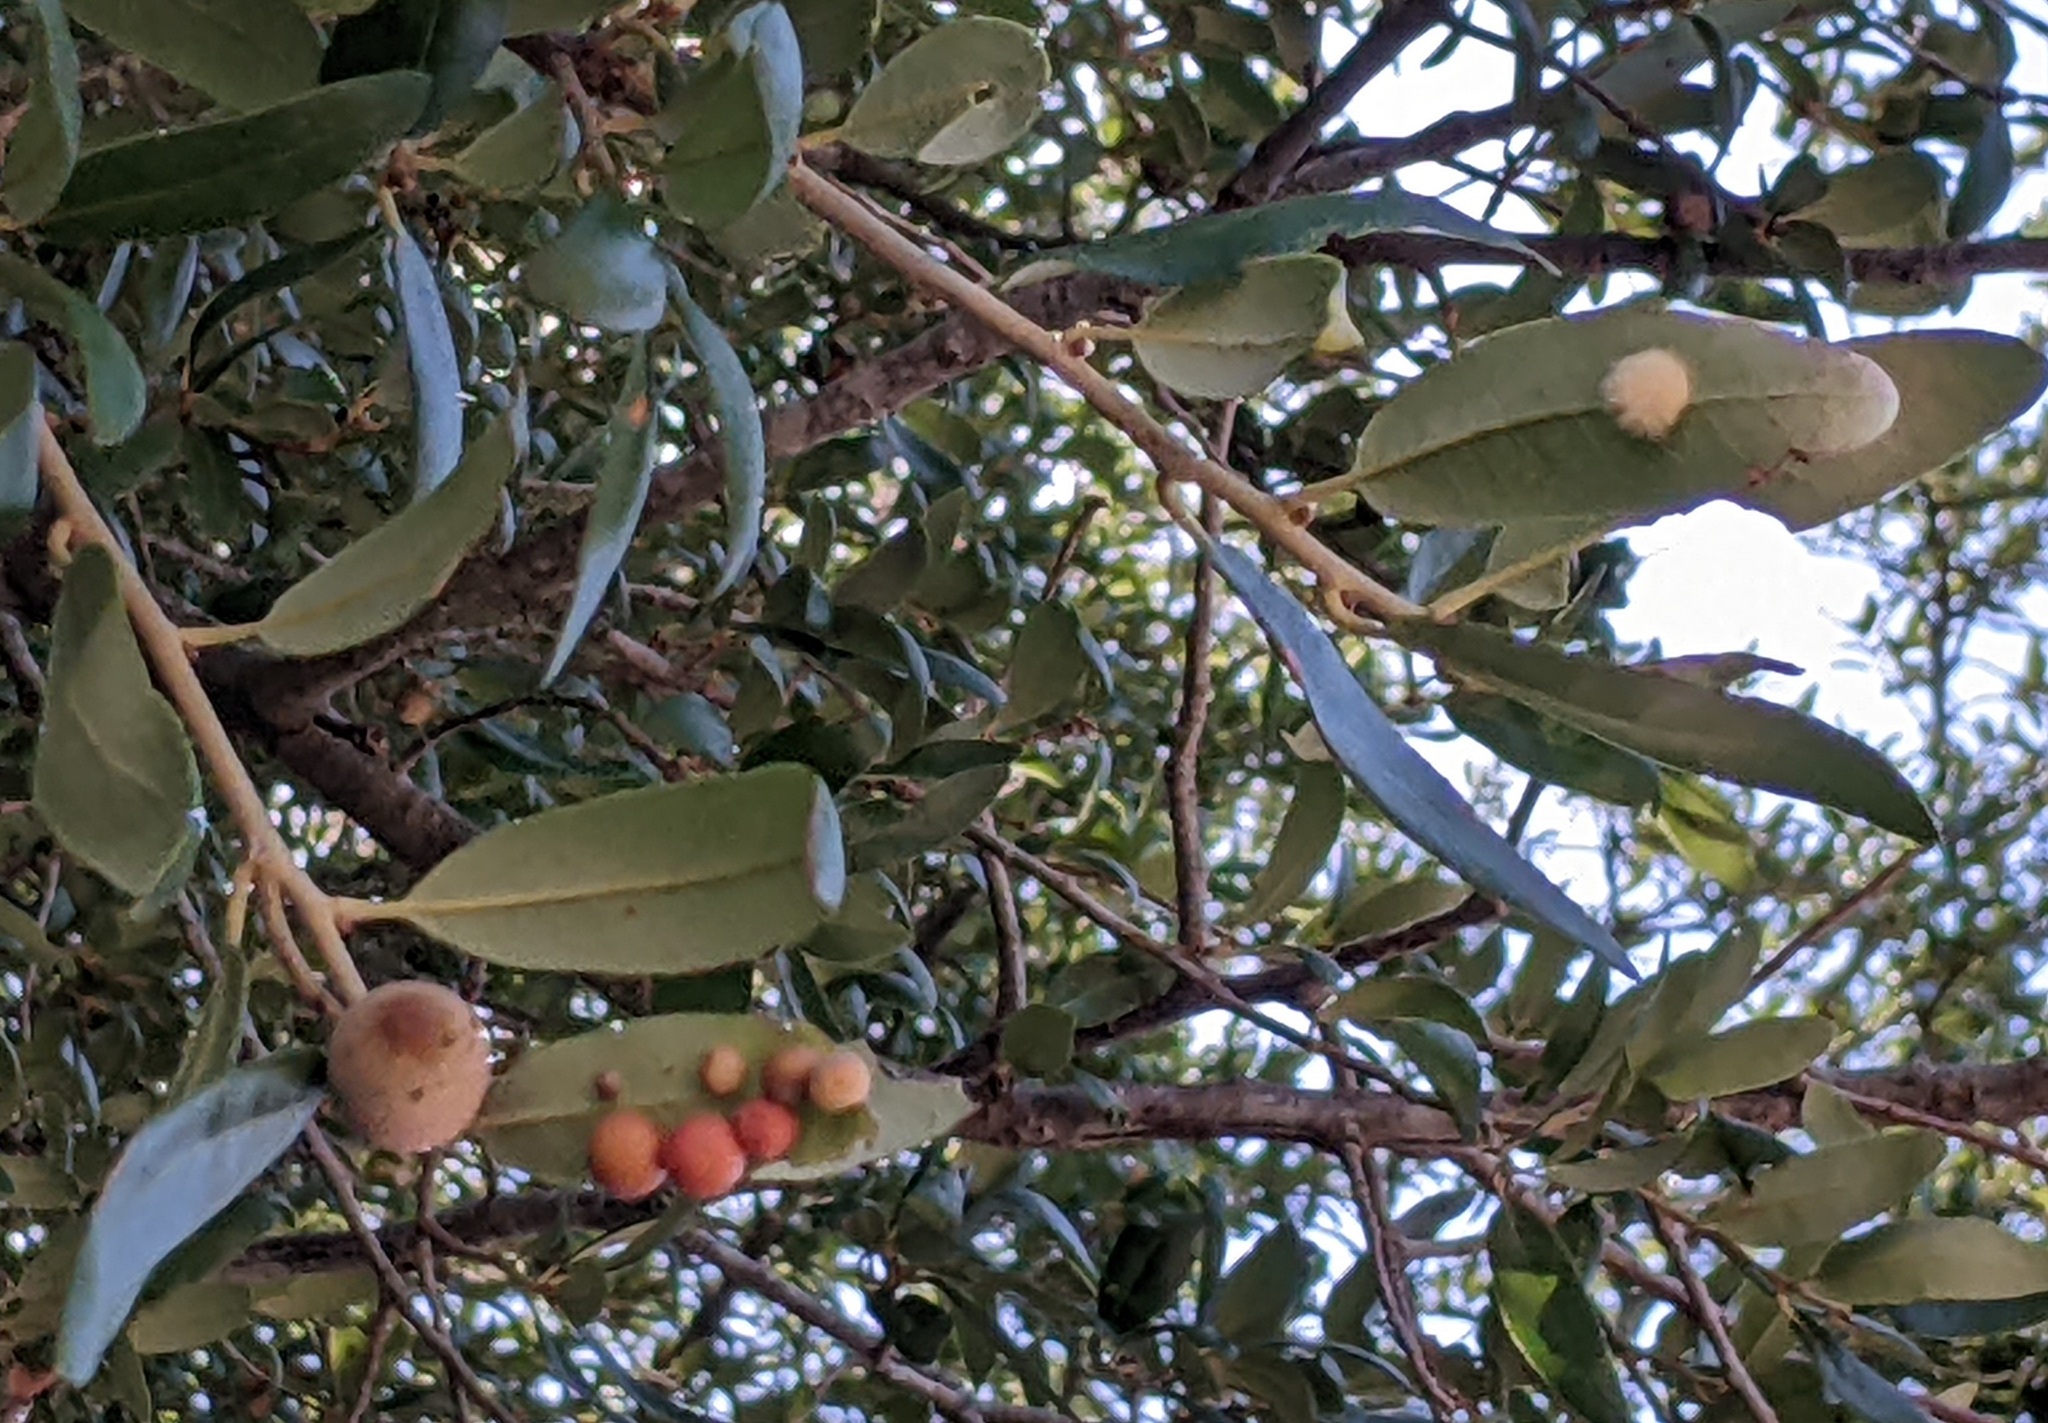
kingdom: Animalia
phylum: Arthropoda
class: Insecta
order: Hymenoptera
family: Cynipidae
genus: Andricus
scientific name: Andricus Druon quercuslanigerum
